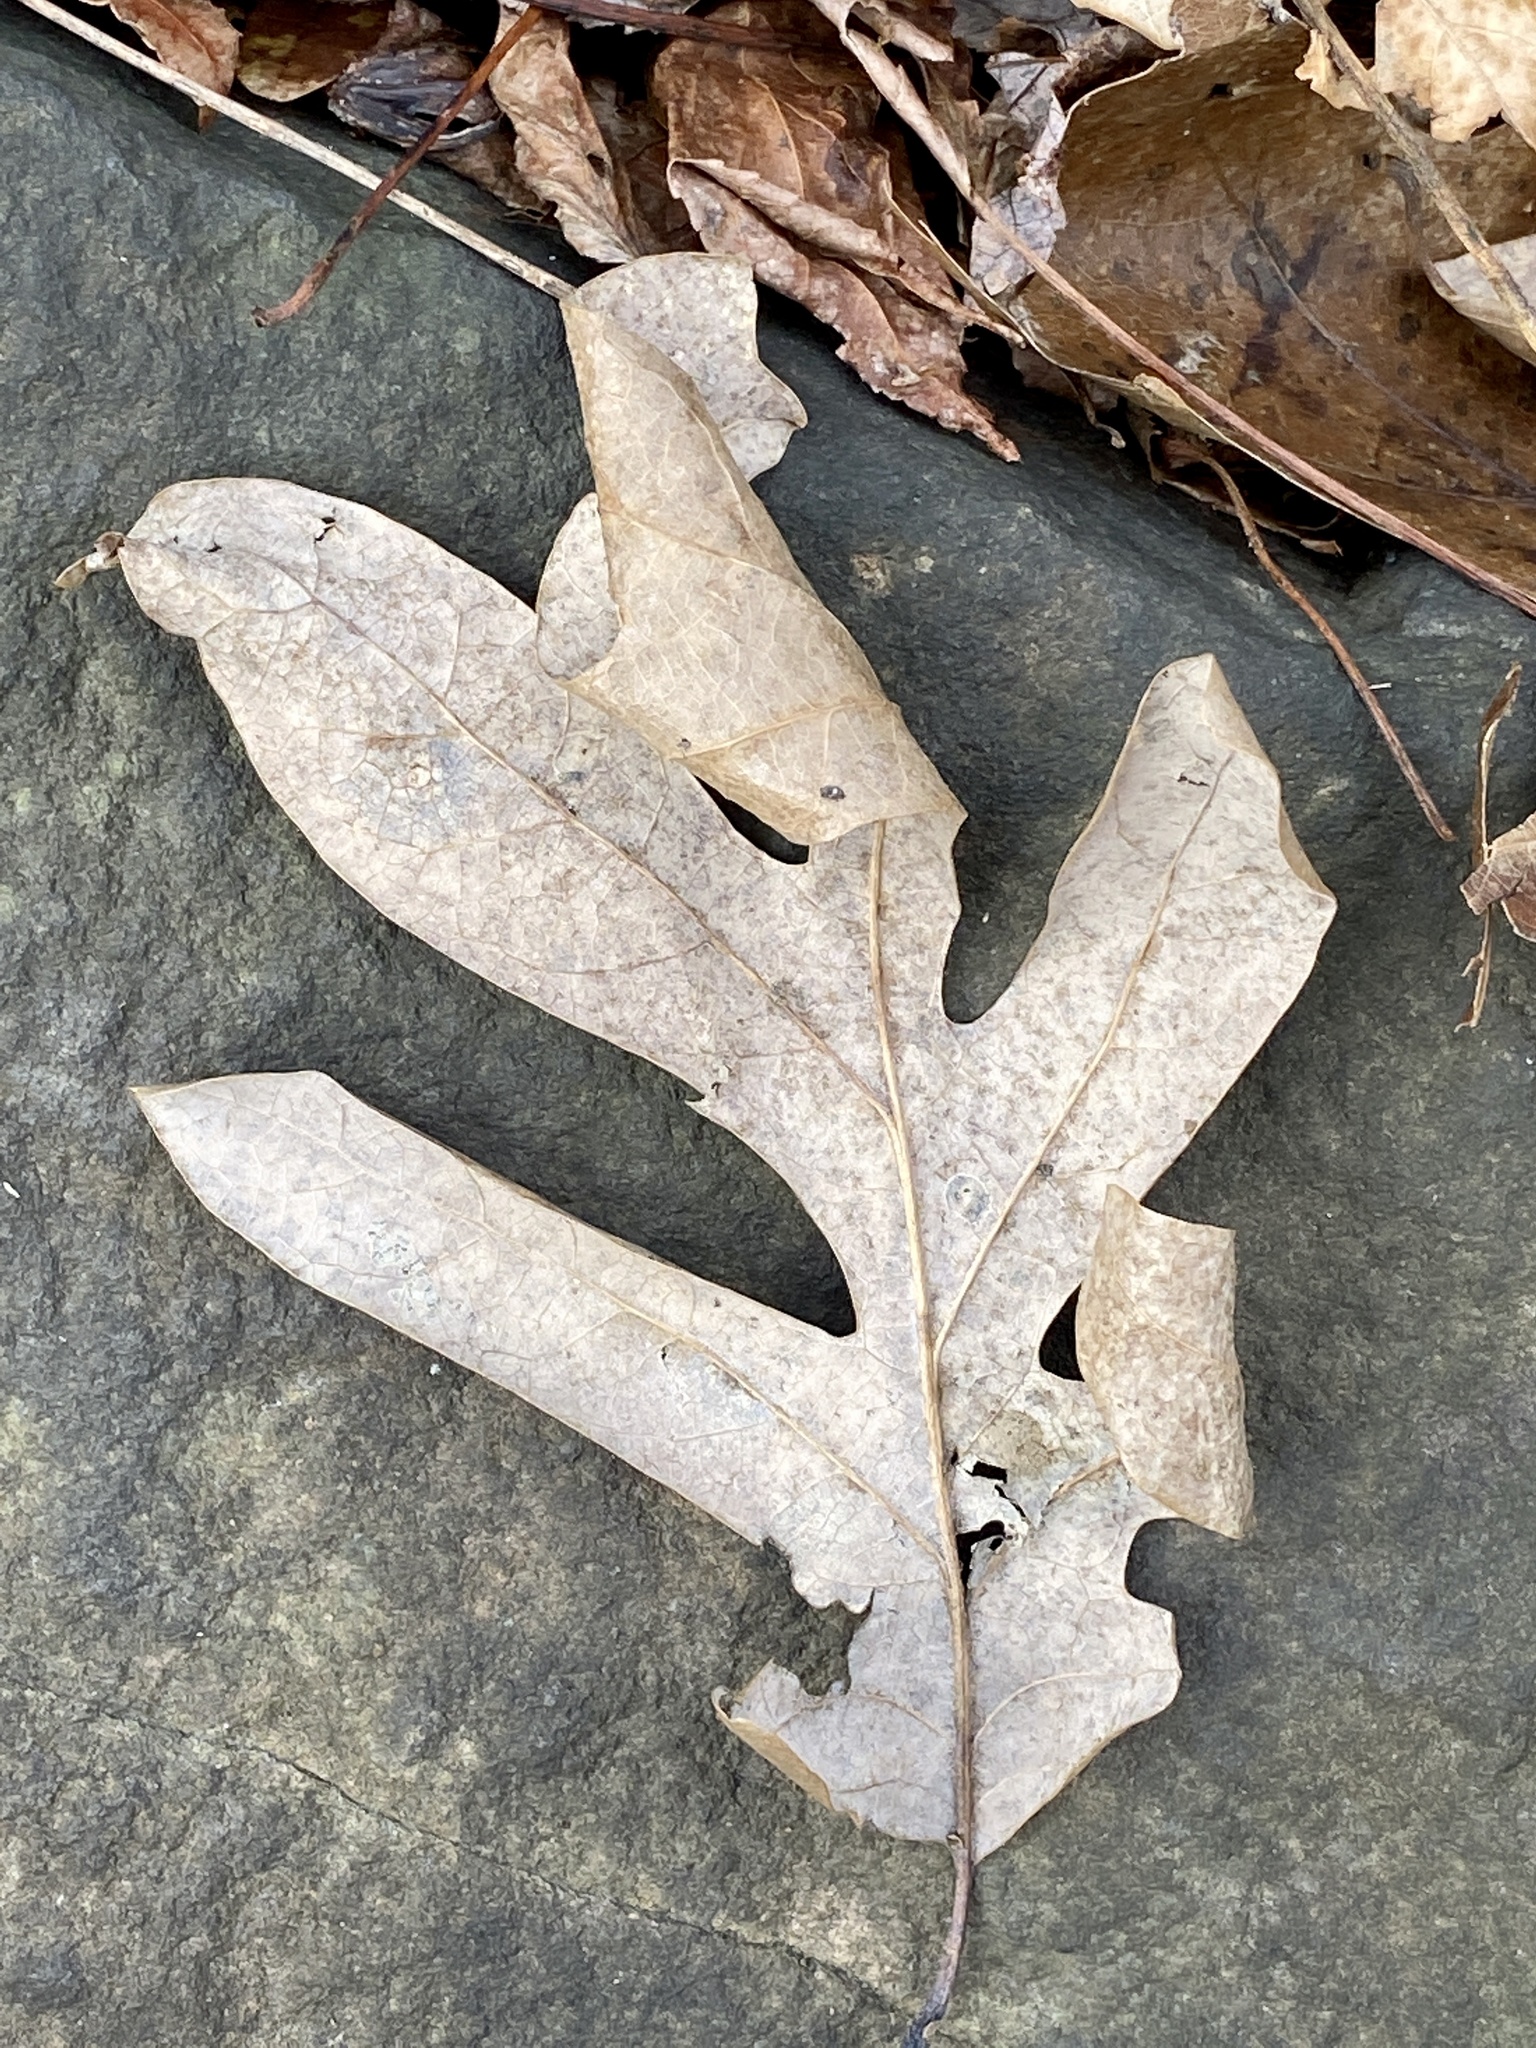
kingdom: Plantae
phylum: Tracheophyta
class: Magnoliopsida
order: Fagales
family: Fagaceae
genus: Quercus
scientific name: Quercus alba
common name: White oak
